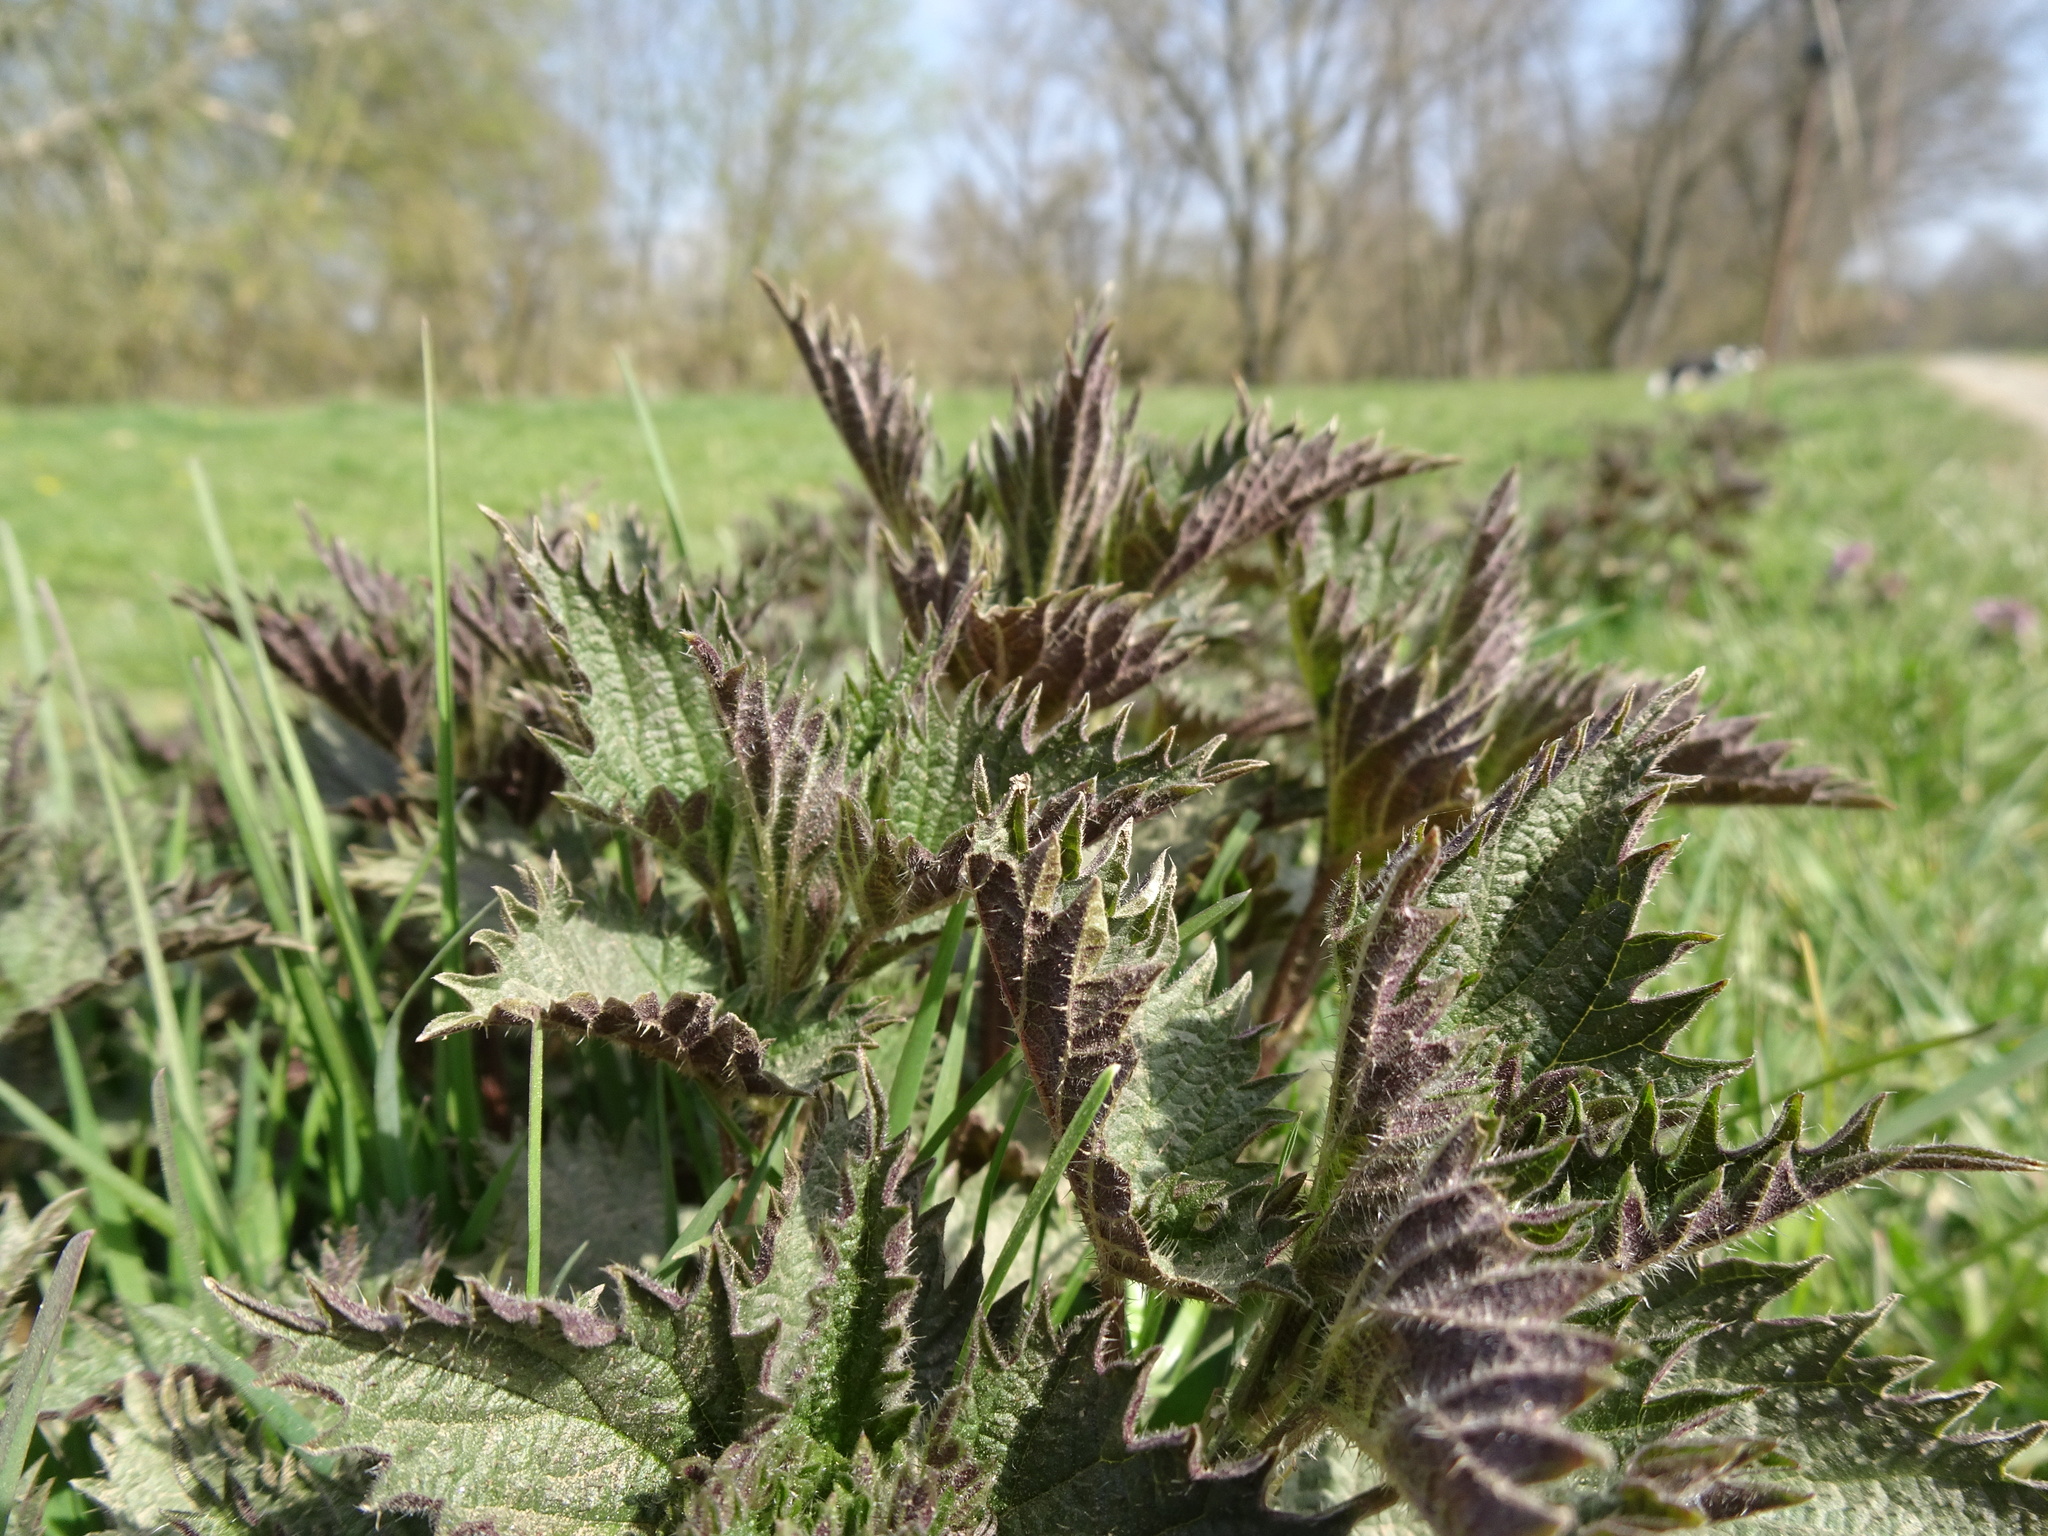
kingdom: Plantae
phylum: Tracheophyta
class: Magnoliopsida
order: Rosales
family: Urticaceae
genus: Urtica
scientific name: Urtica dioica
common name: Common nettle
